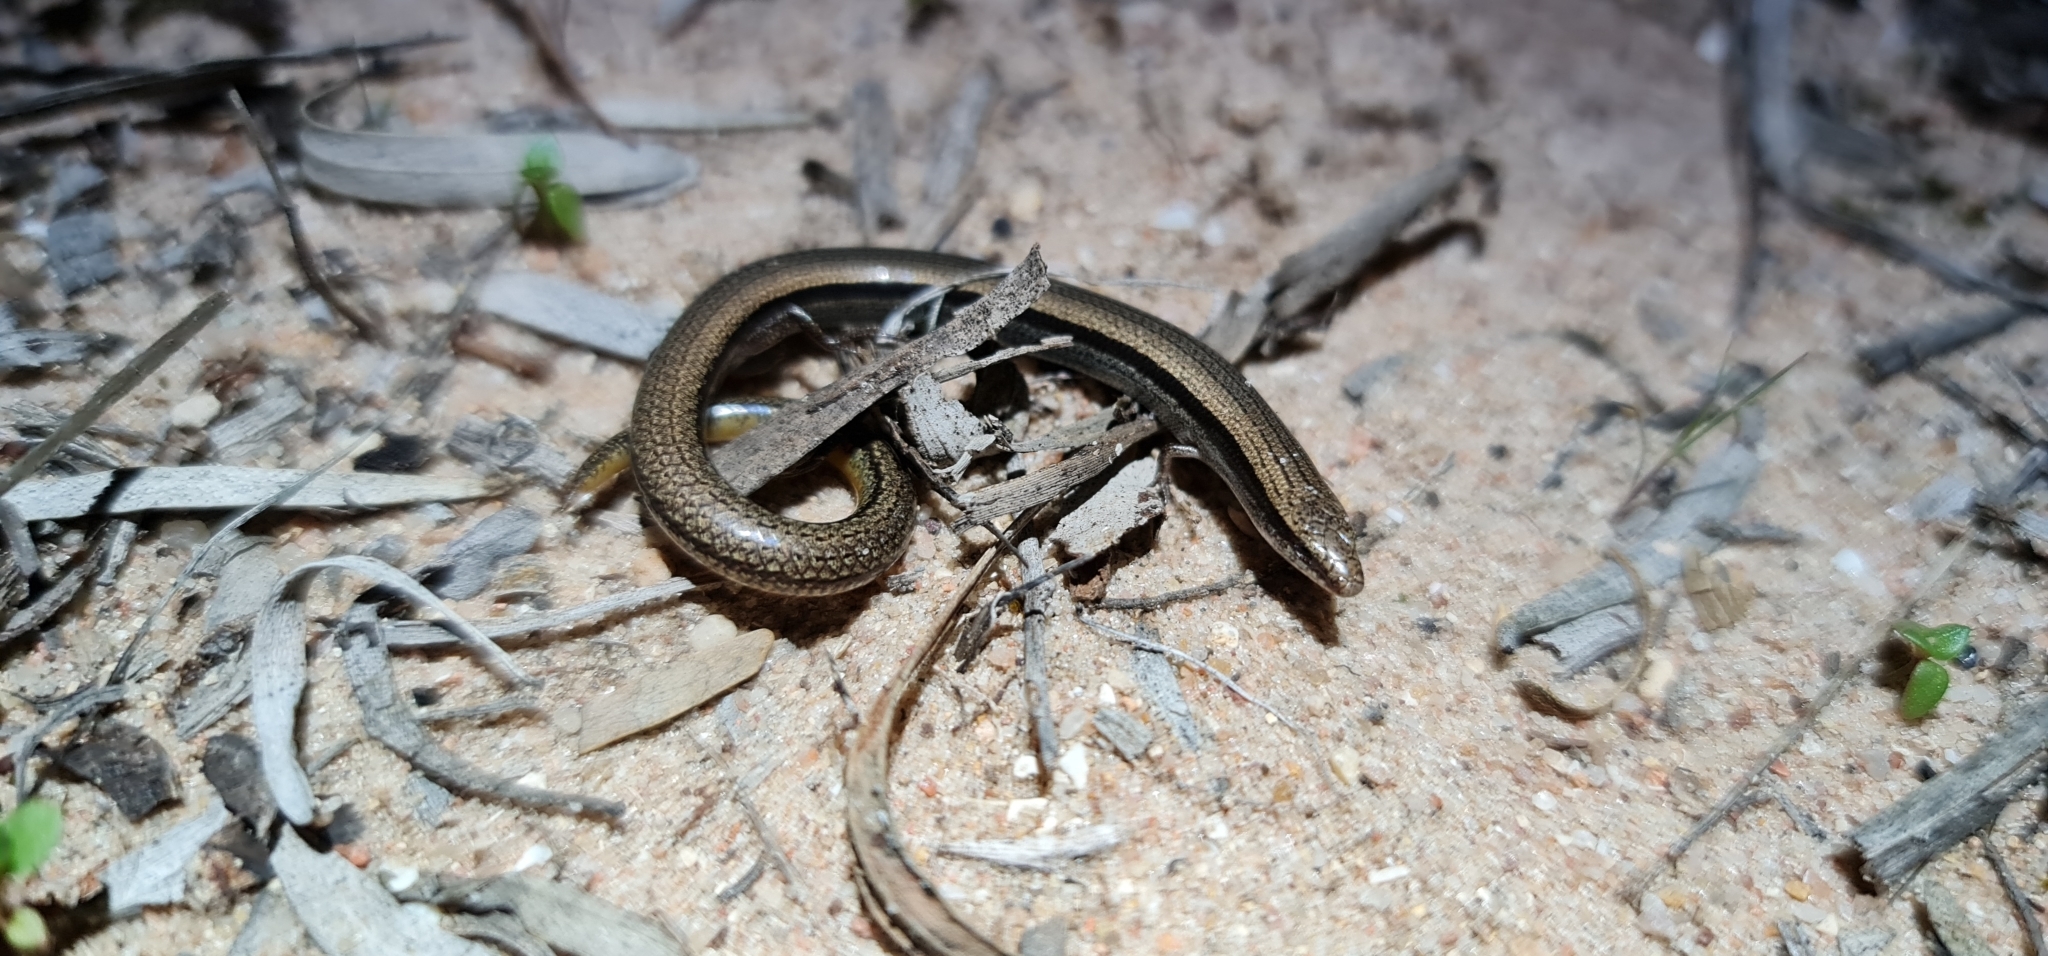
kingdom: Animalia
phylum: Chordata
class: Squamata
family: Scincidae
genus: Lerista
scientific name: Lerista dorsalis
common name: Southern slider
